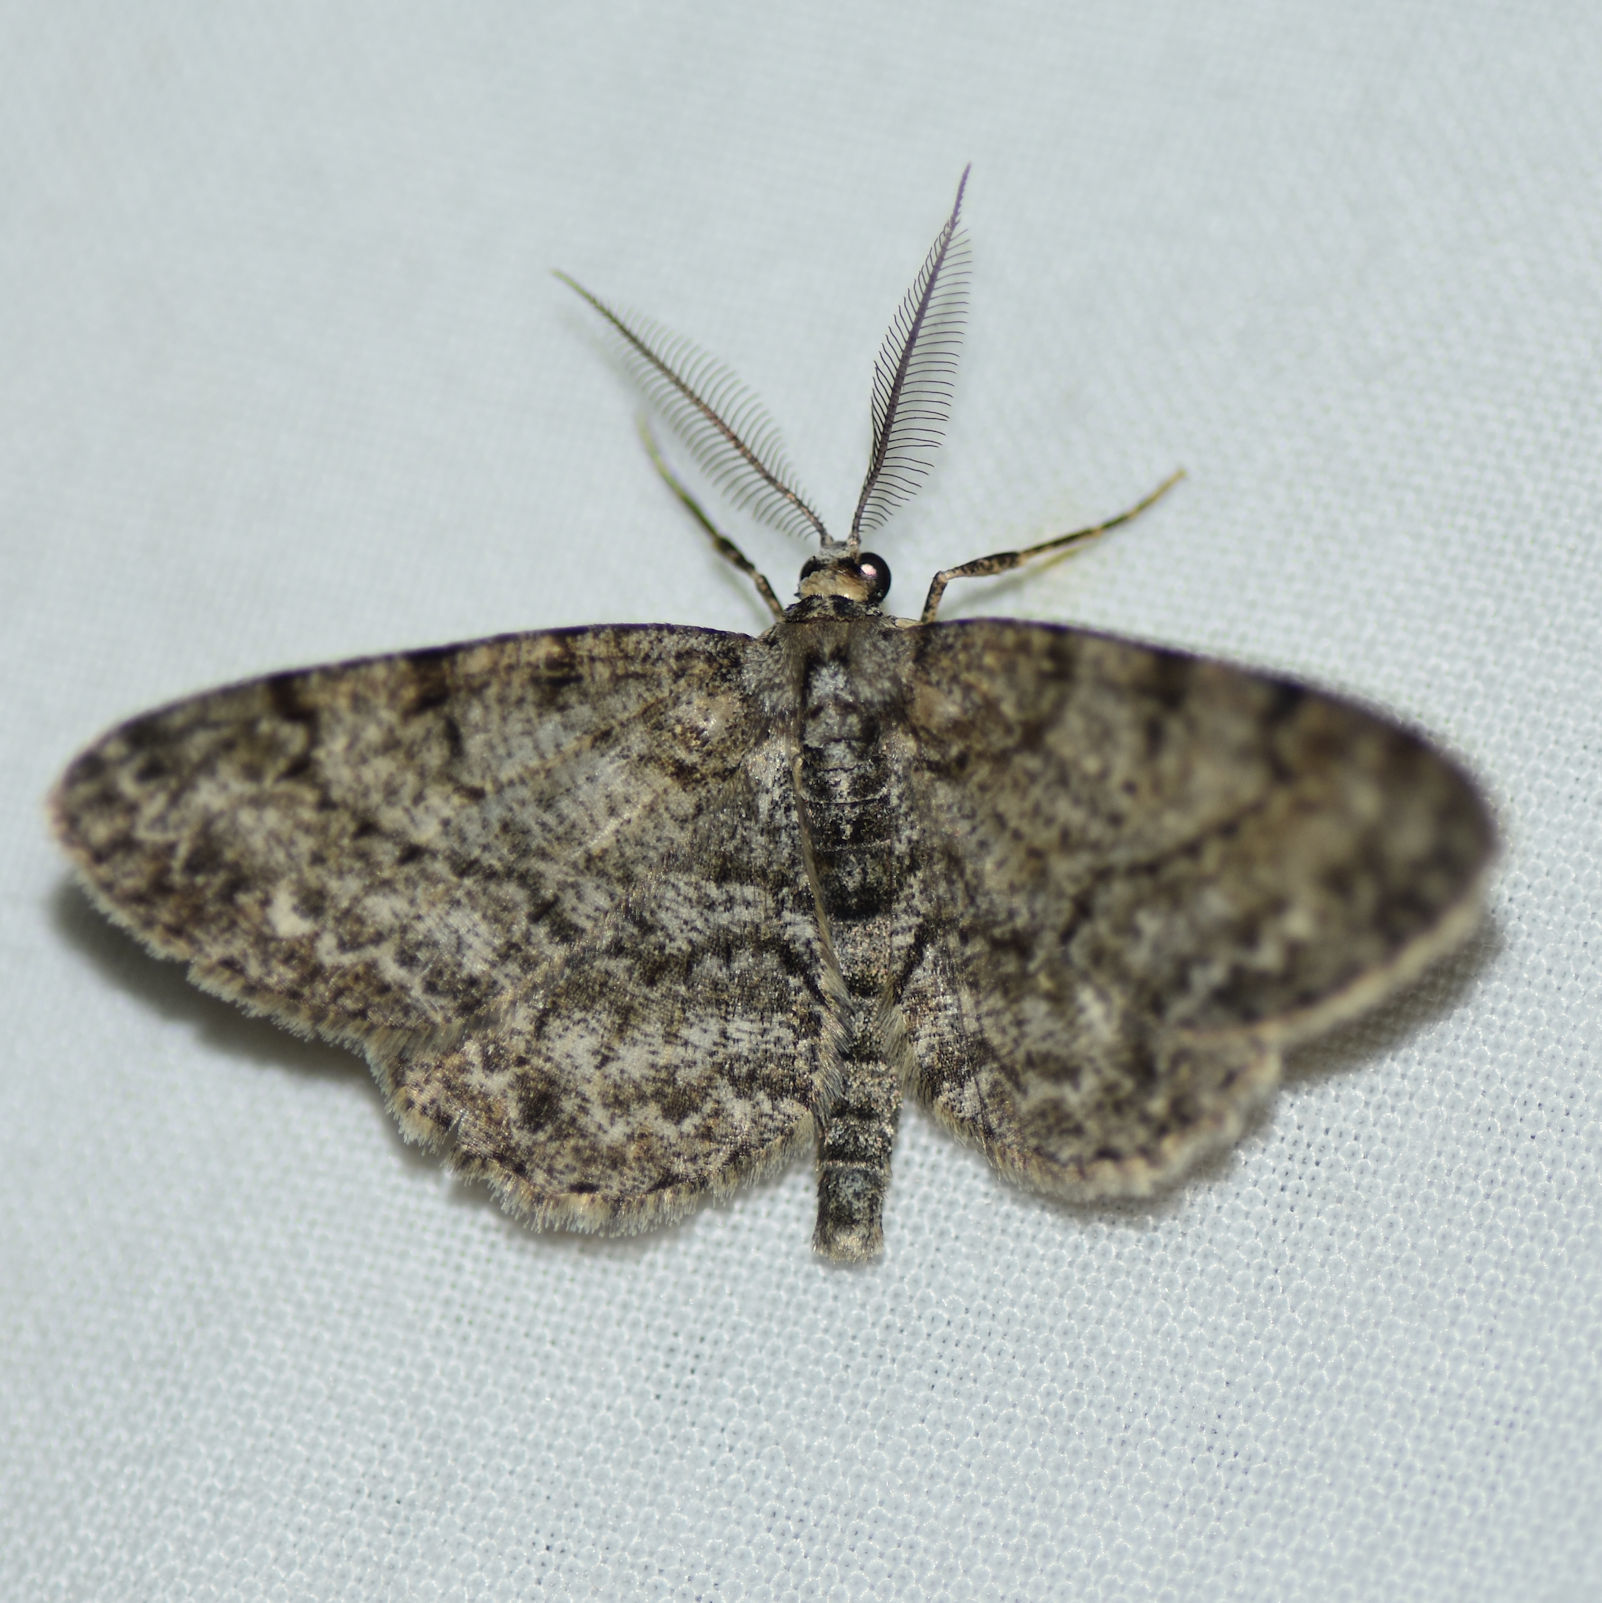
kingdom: Animalia
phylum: Arthropoda
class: Insecta
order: Lepidoptera
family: Geometridae
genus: Protoboarmia
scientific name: Protoboarmia porcelaria
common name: Porcelain gray
